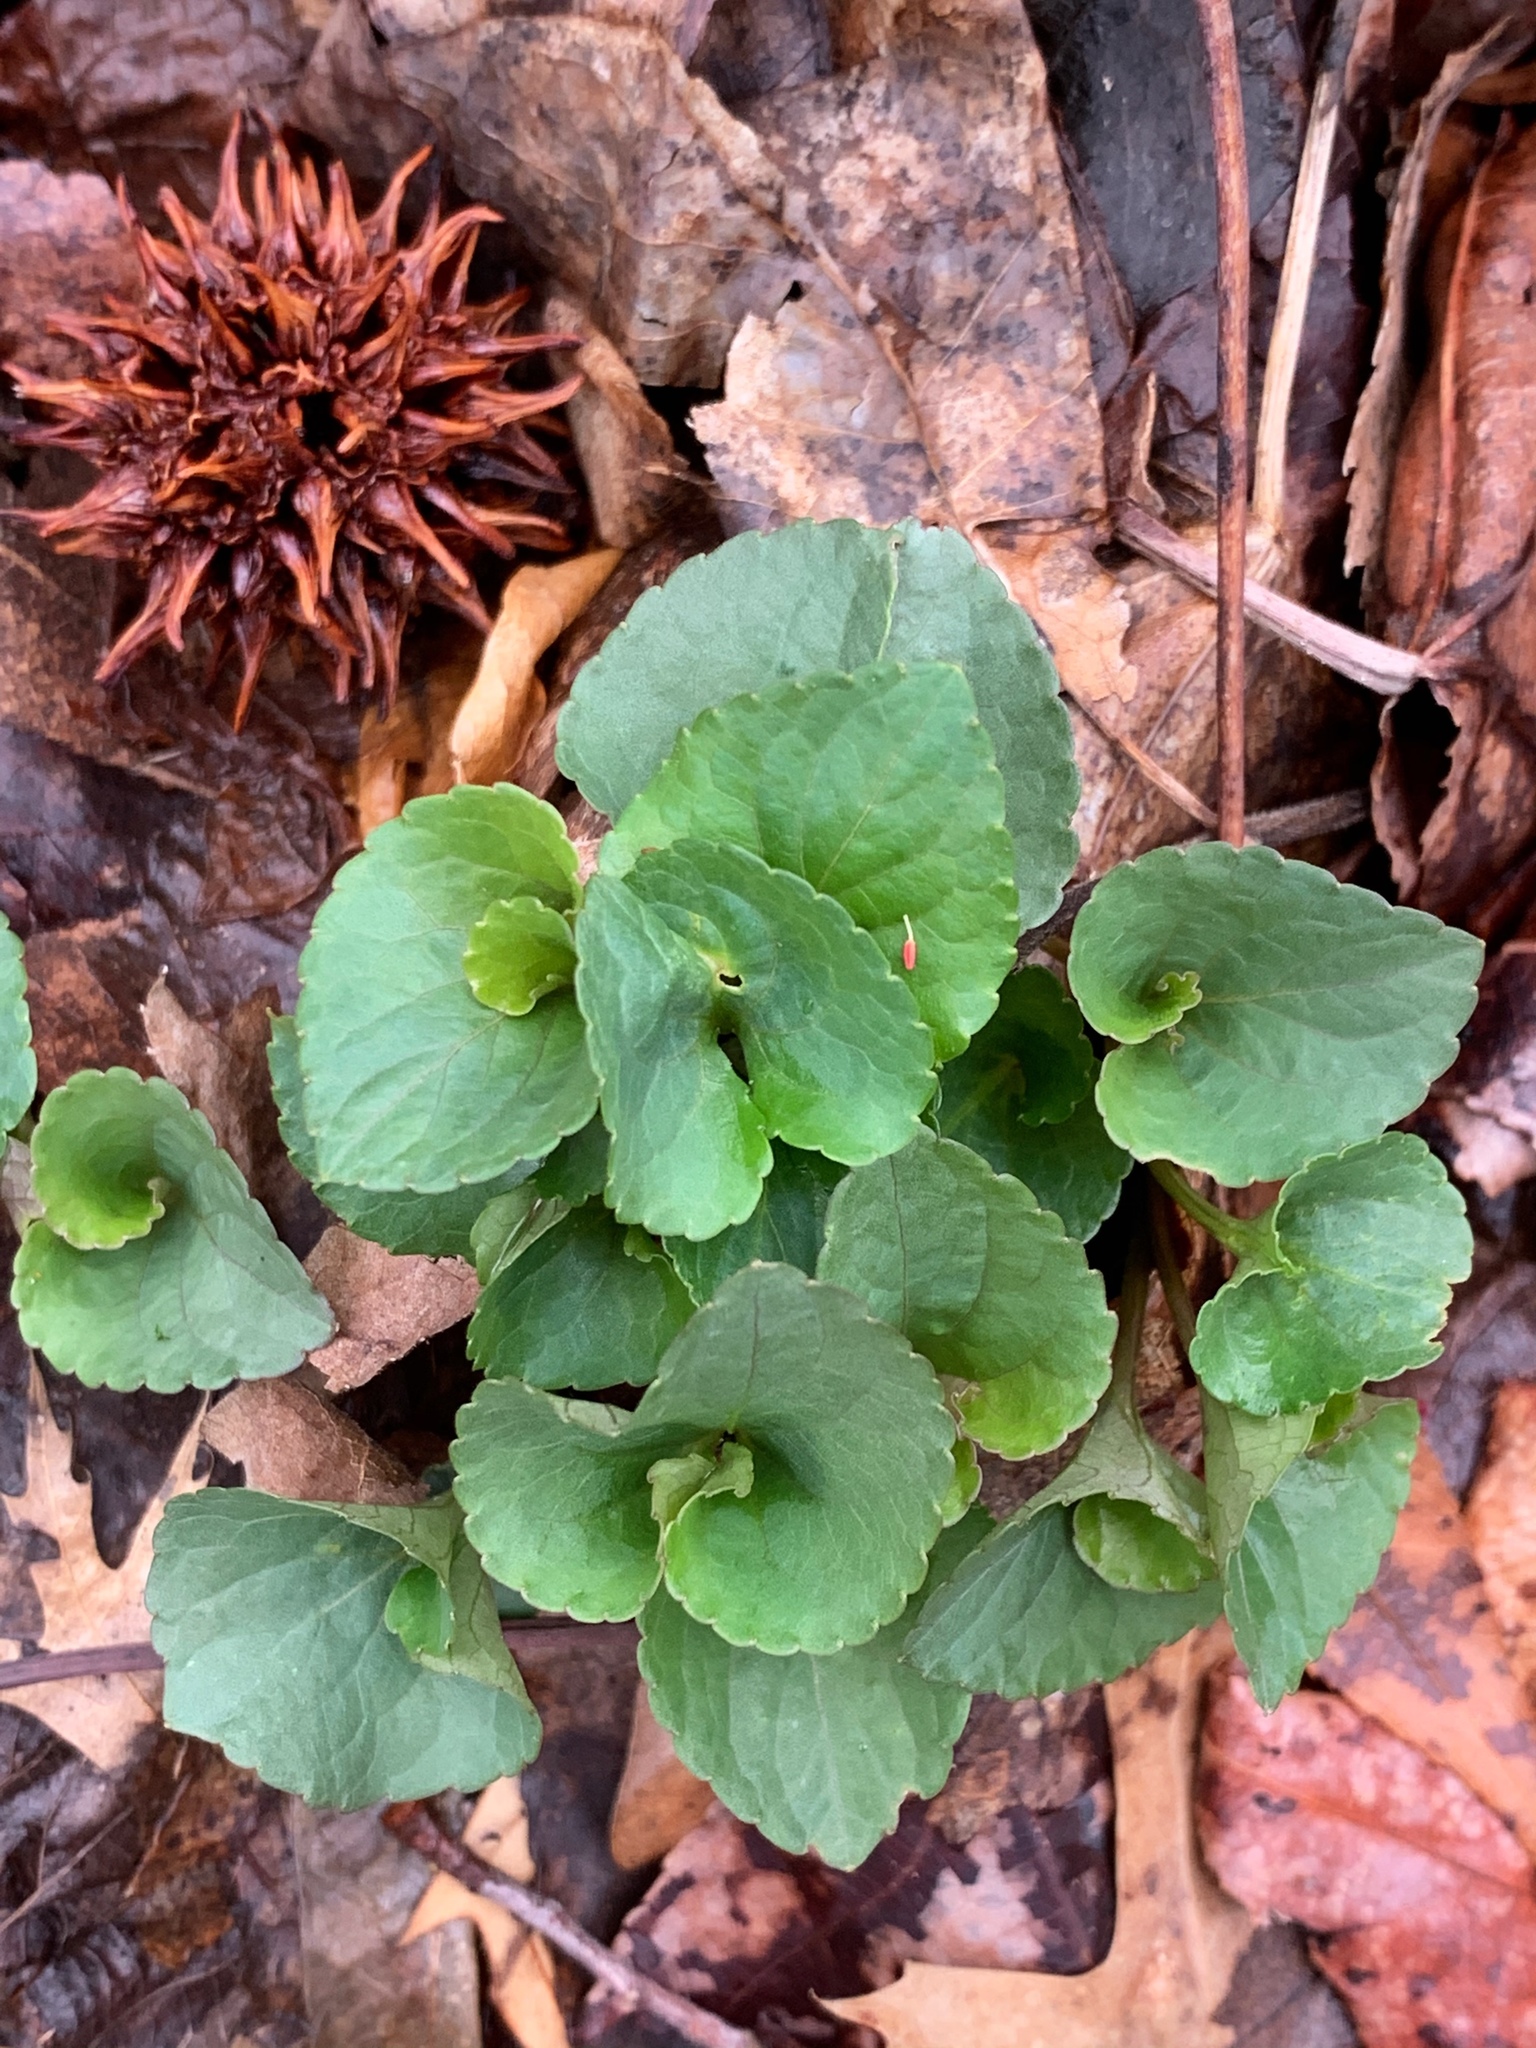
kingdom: Plantae
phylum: Tracheophyta
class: Magnoliopsida
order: Malpighiales
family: Violaceae
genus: Viola
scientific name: Viola
